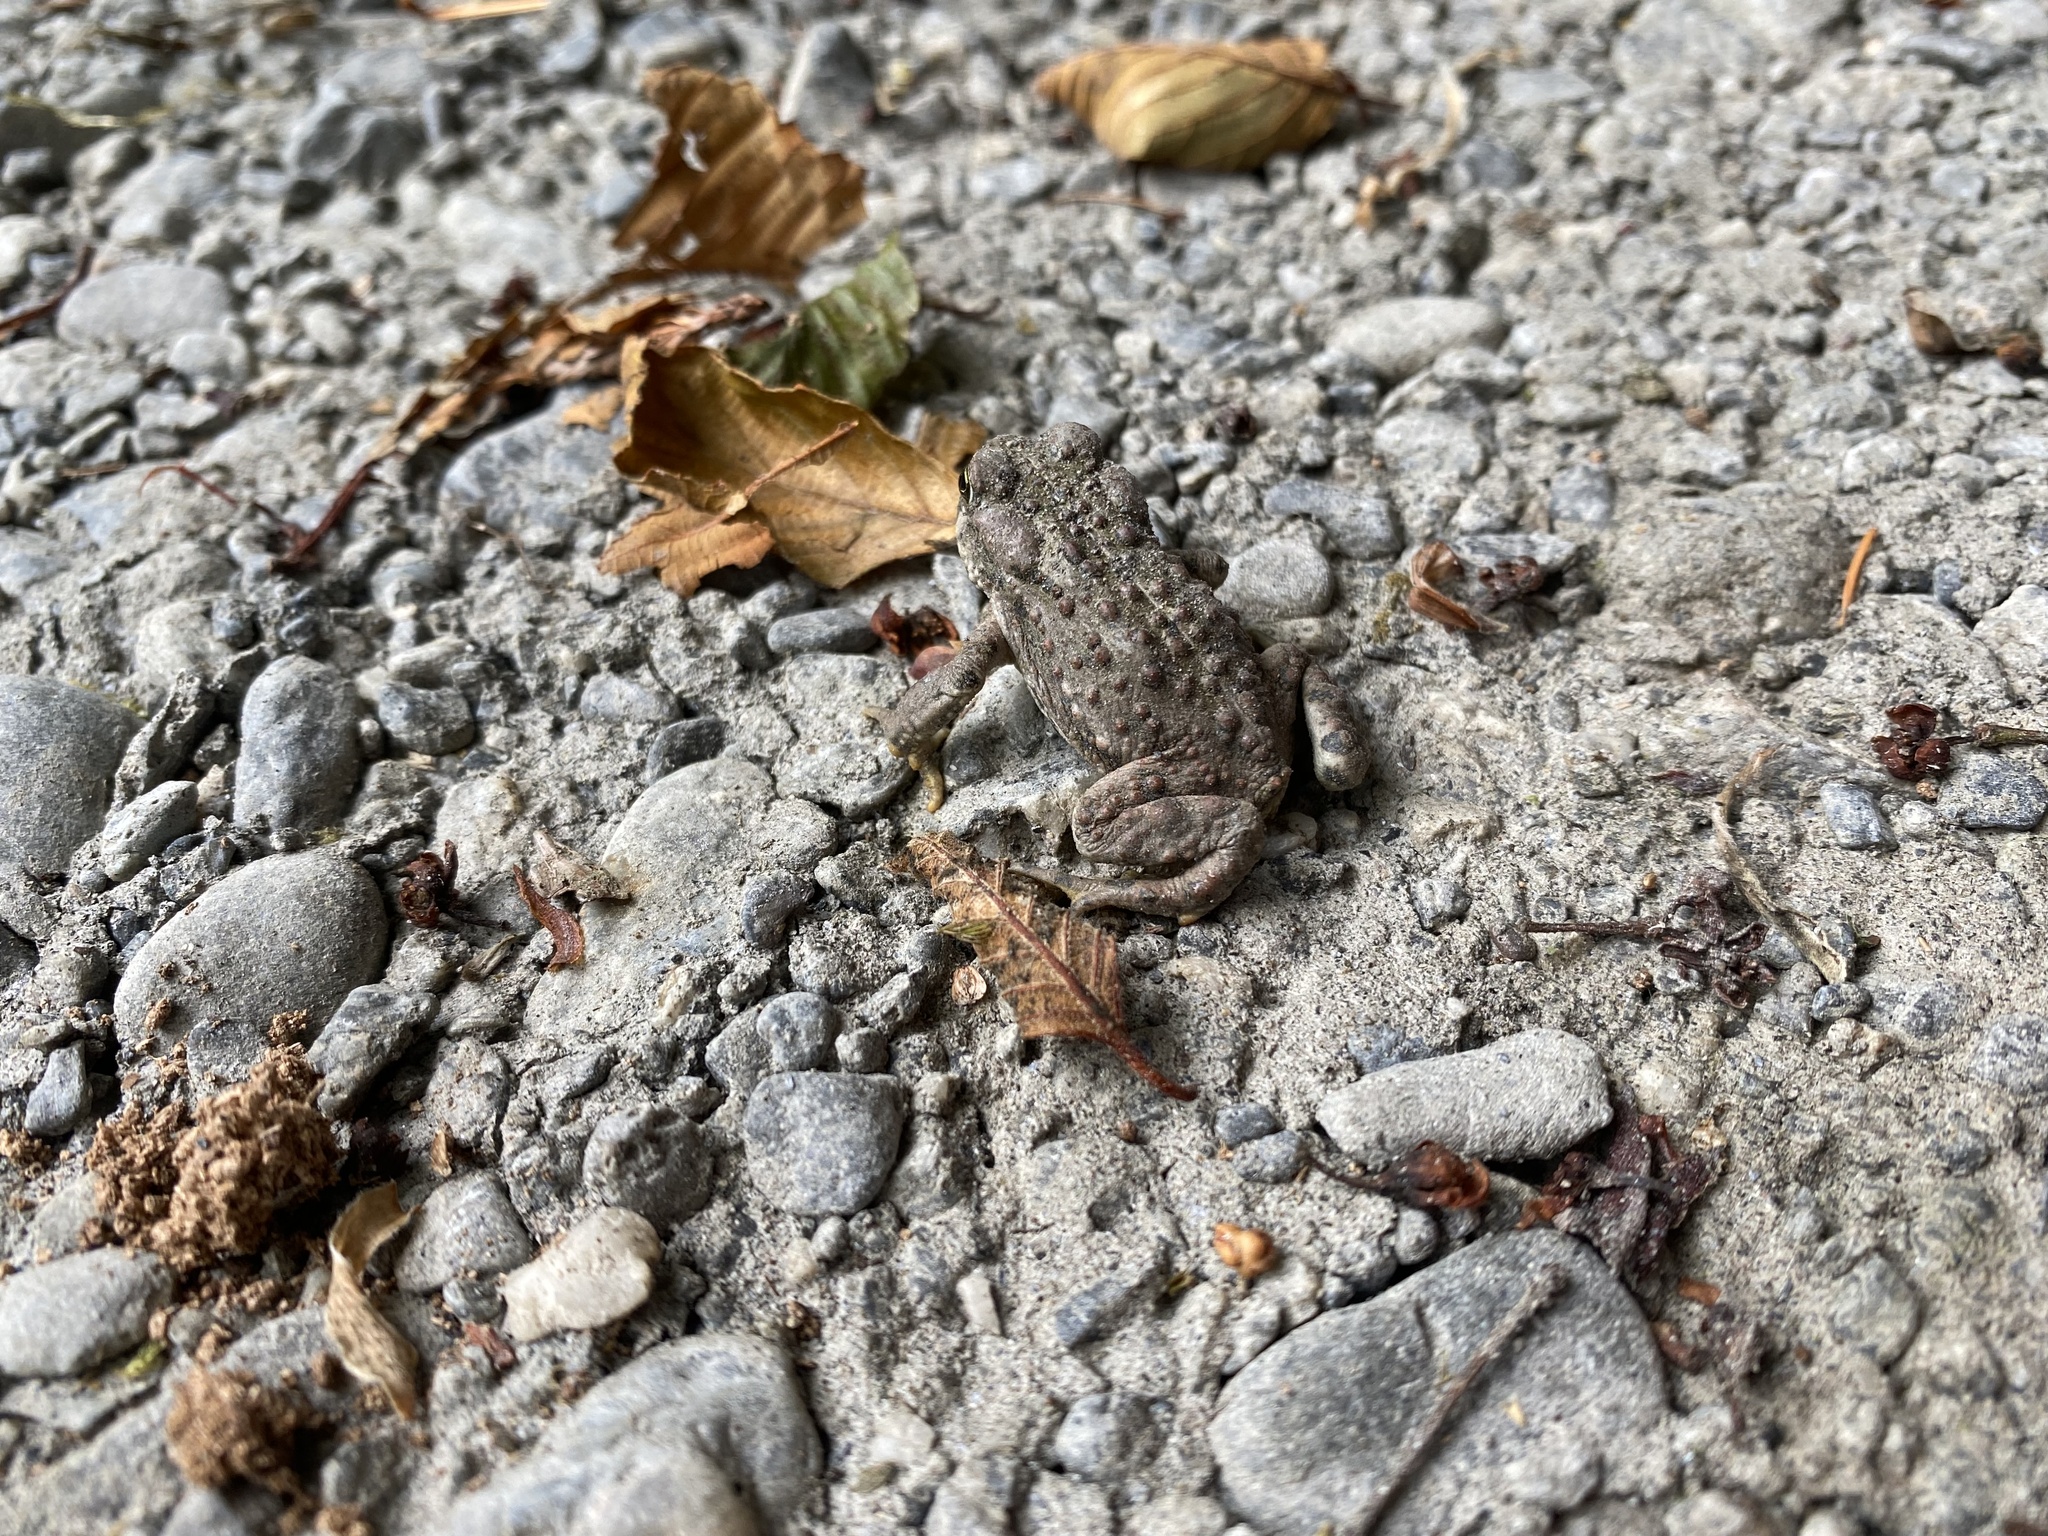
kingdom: Animalia
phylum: Chordata
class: Amphibia
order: Anura
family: Bufonidae
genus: Anaxyrus
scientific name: Anaxyrus boreas
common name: Western toad
